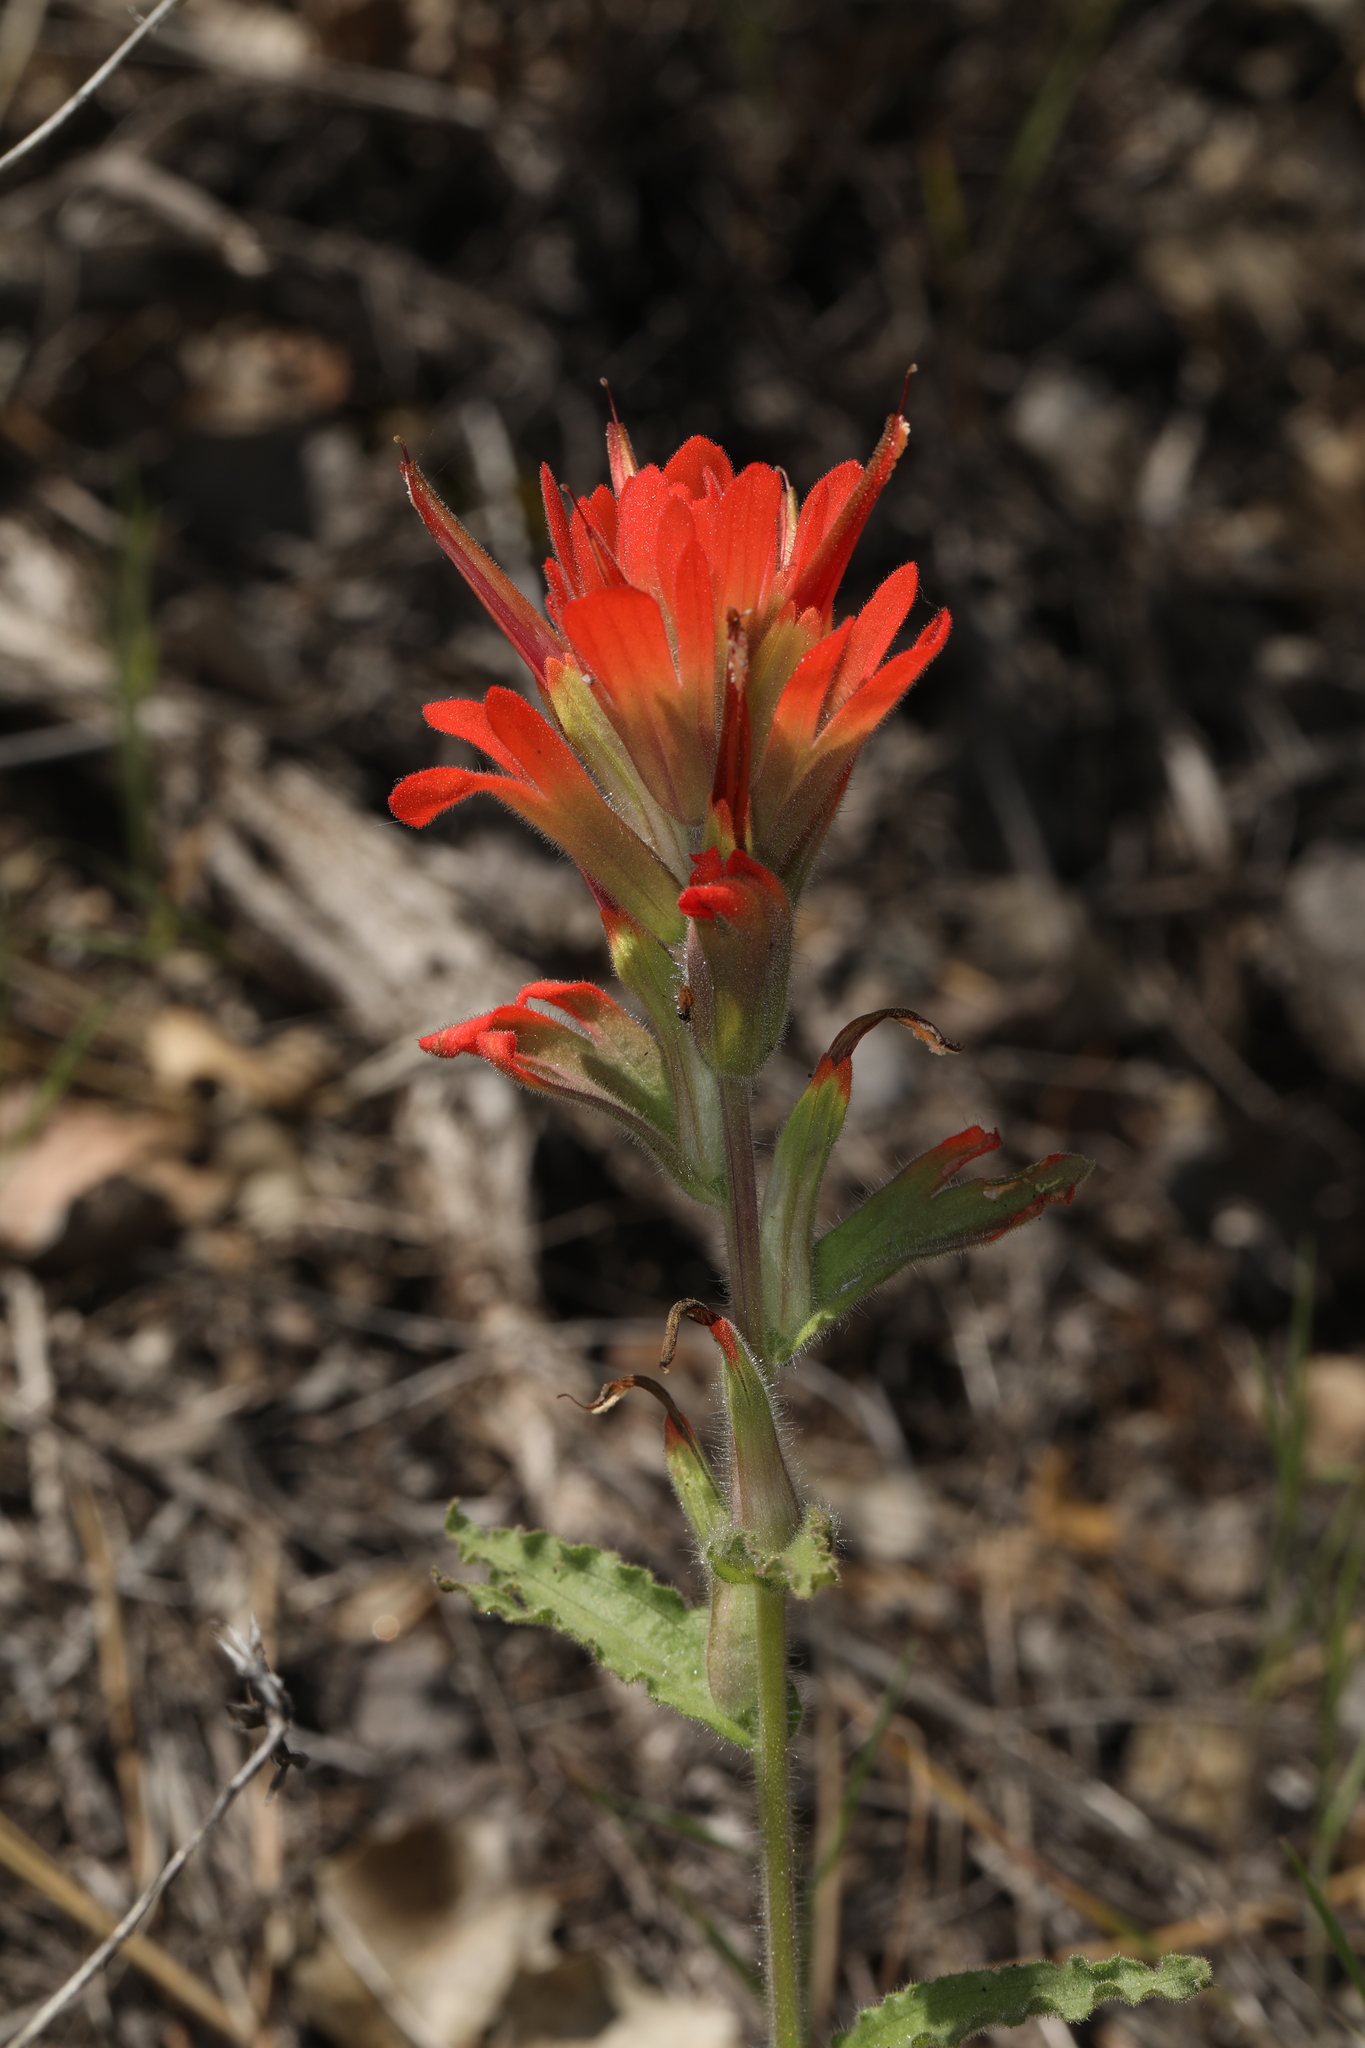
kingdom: Plantae
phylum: Tracheophyta
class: Magnoliopsida
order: Lamiales
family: Orobanchaceae
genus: Castilleja
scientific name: Castilleja martini
